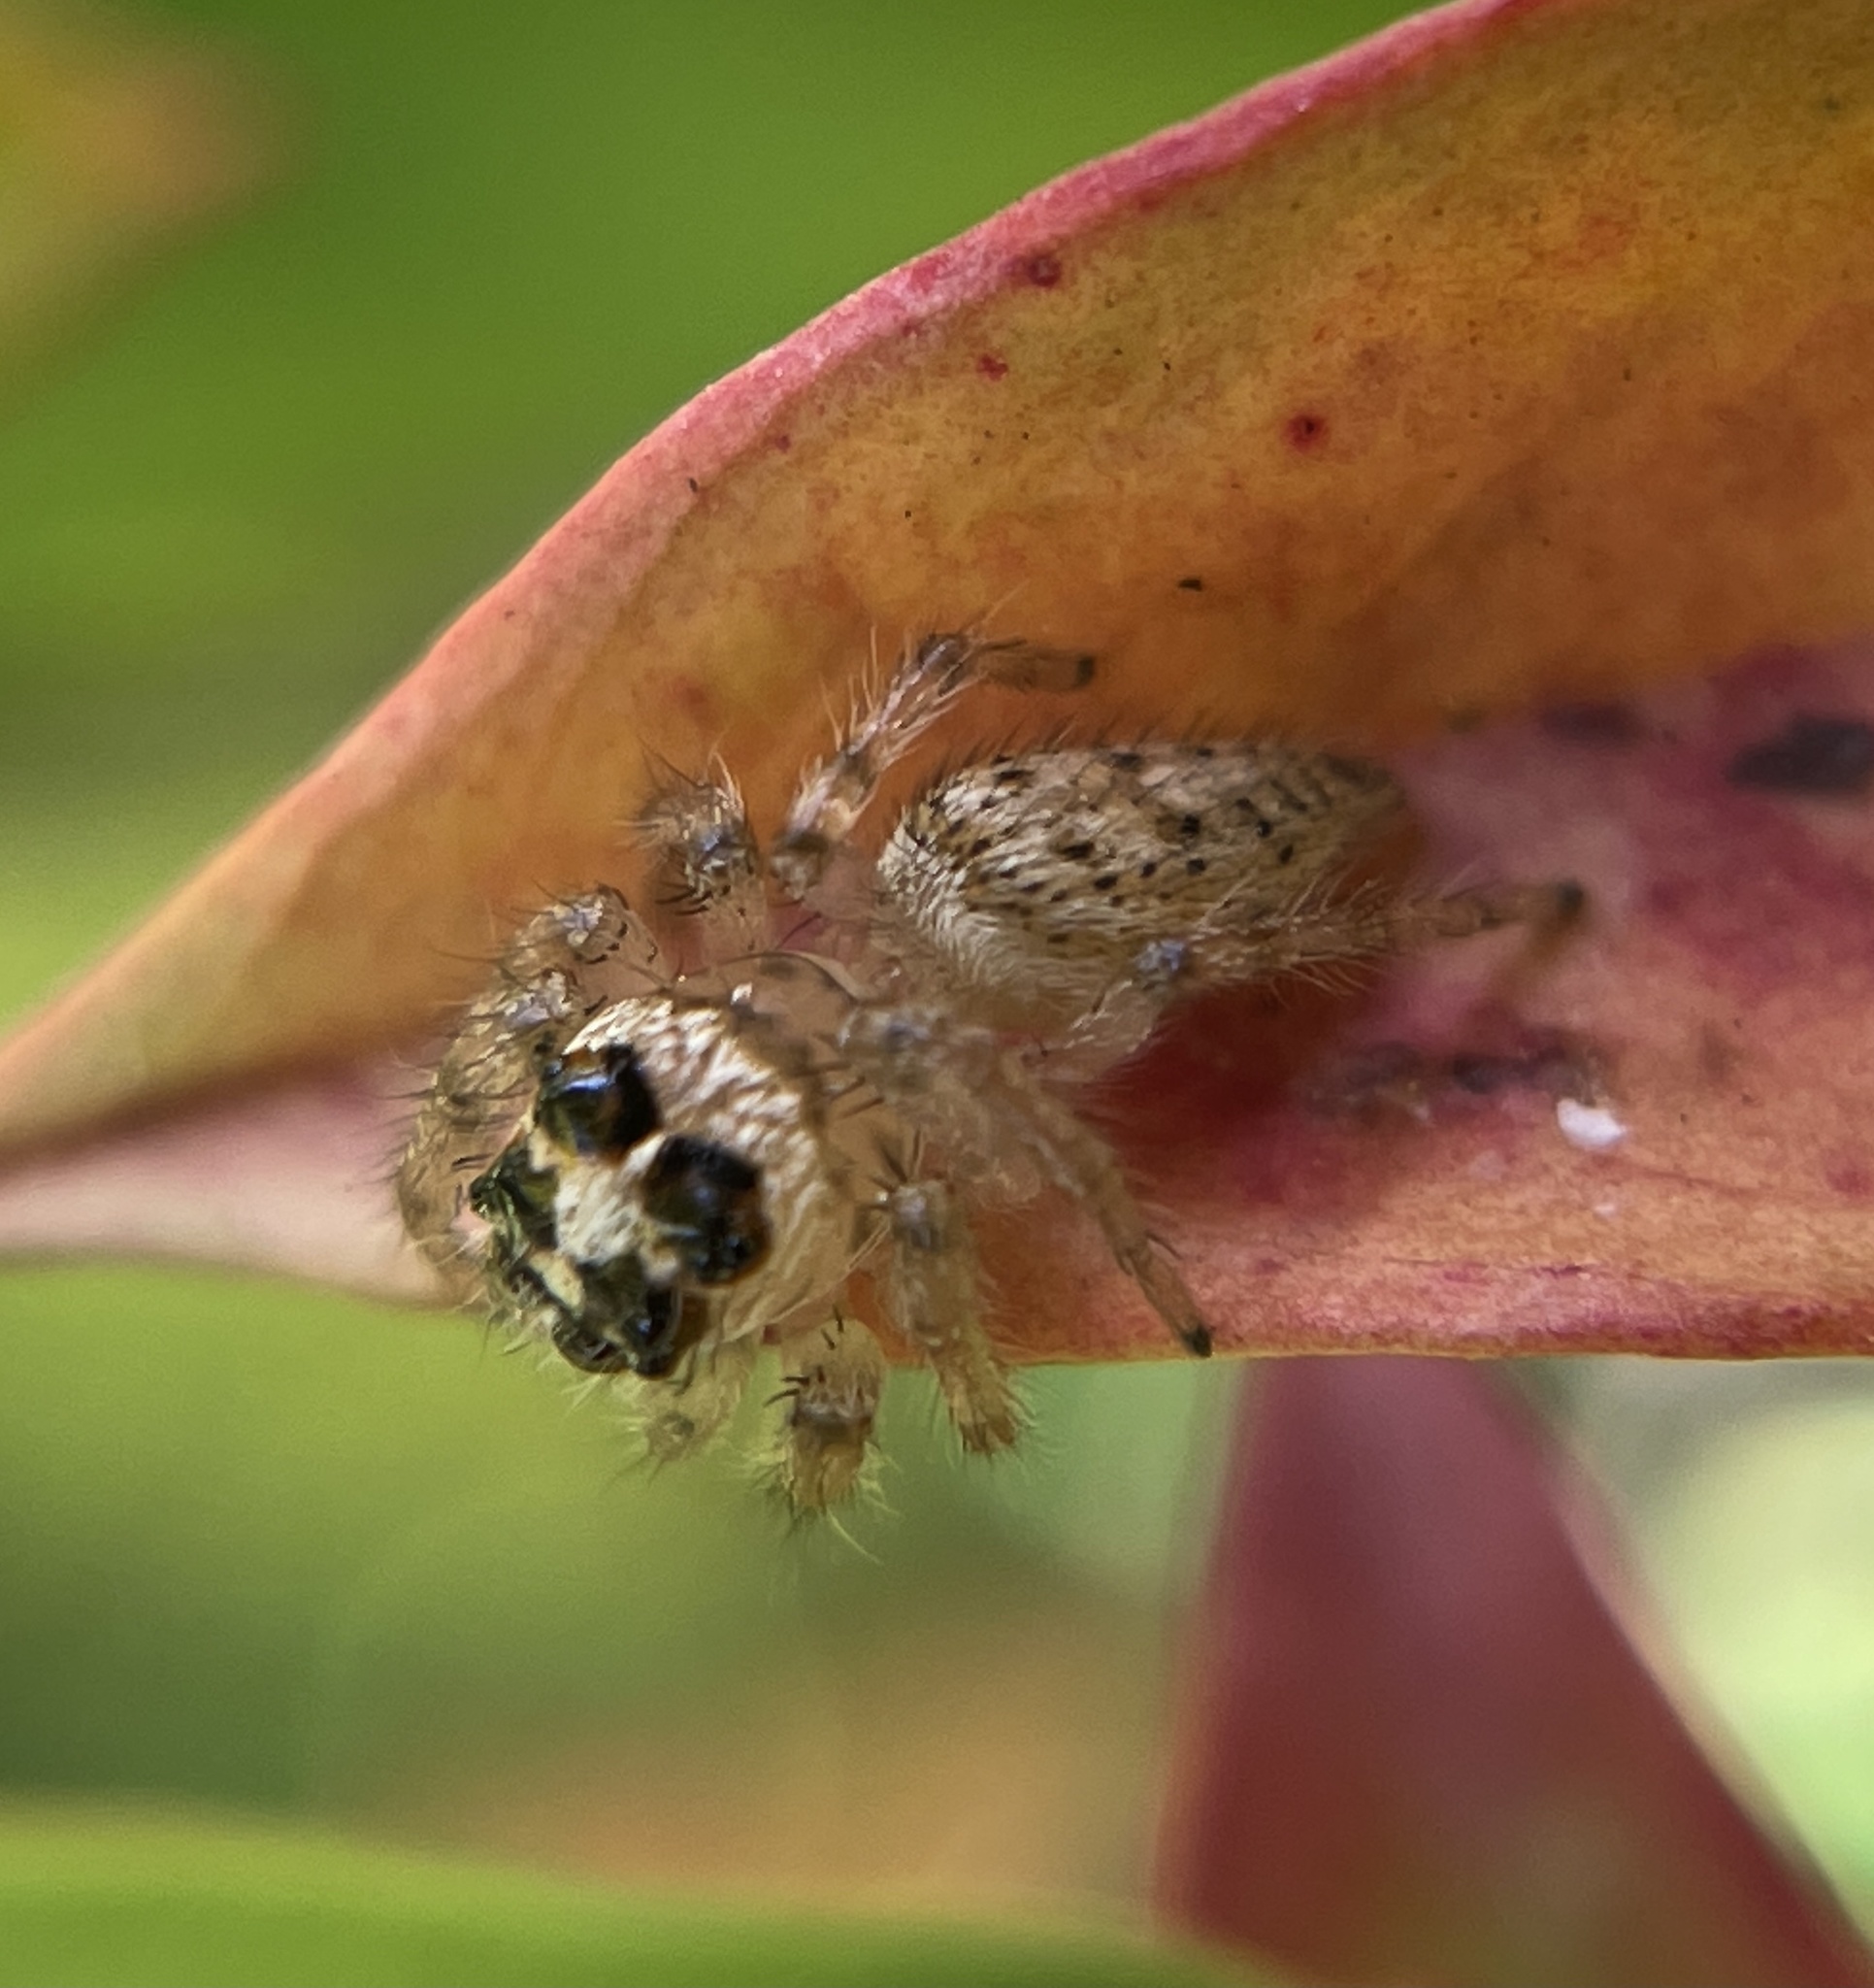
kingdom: Animalia
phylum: Arthropoda
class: Arachnida
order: Araneae
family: Salticidae
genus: Colonus
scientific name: Colonus hesperus
